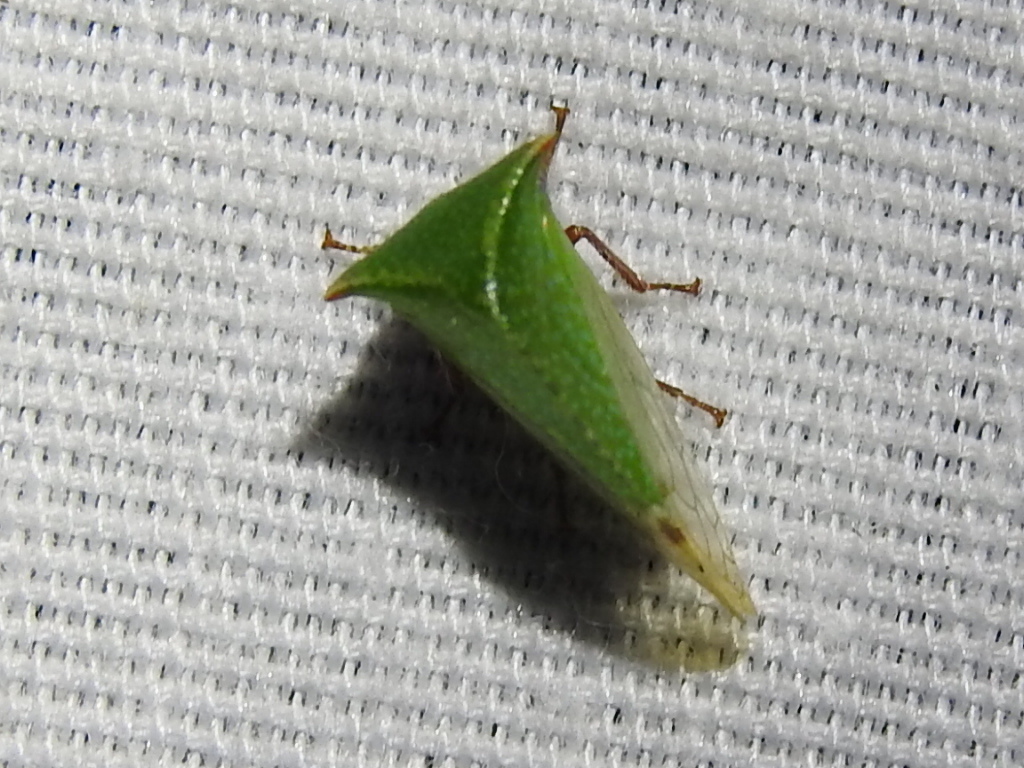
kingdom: Animalia
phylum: Arthropoda
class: Insecta
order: Hemiptera
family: Membracidae
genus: Tortistilus
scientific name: Tortistilus abnorma
